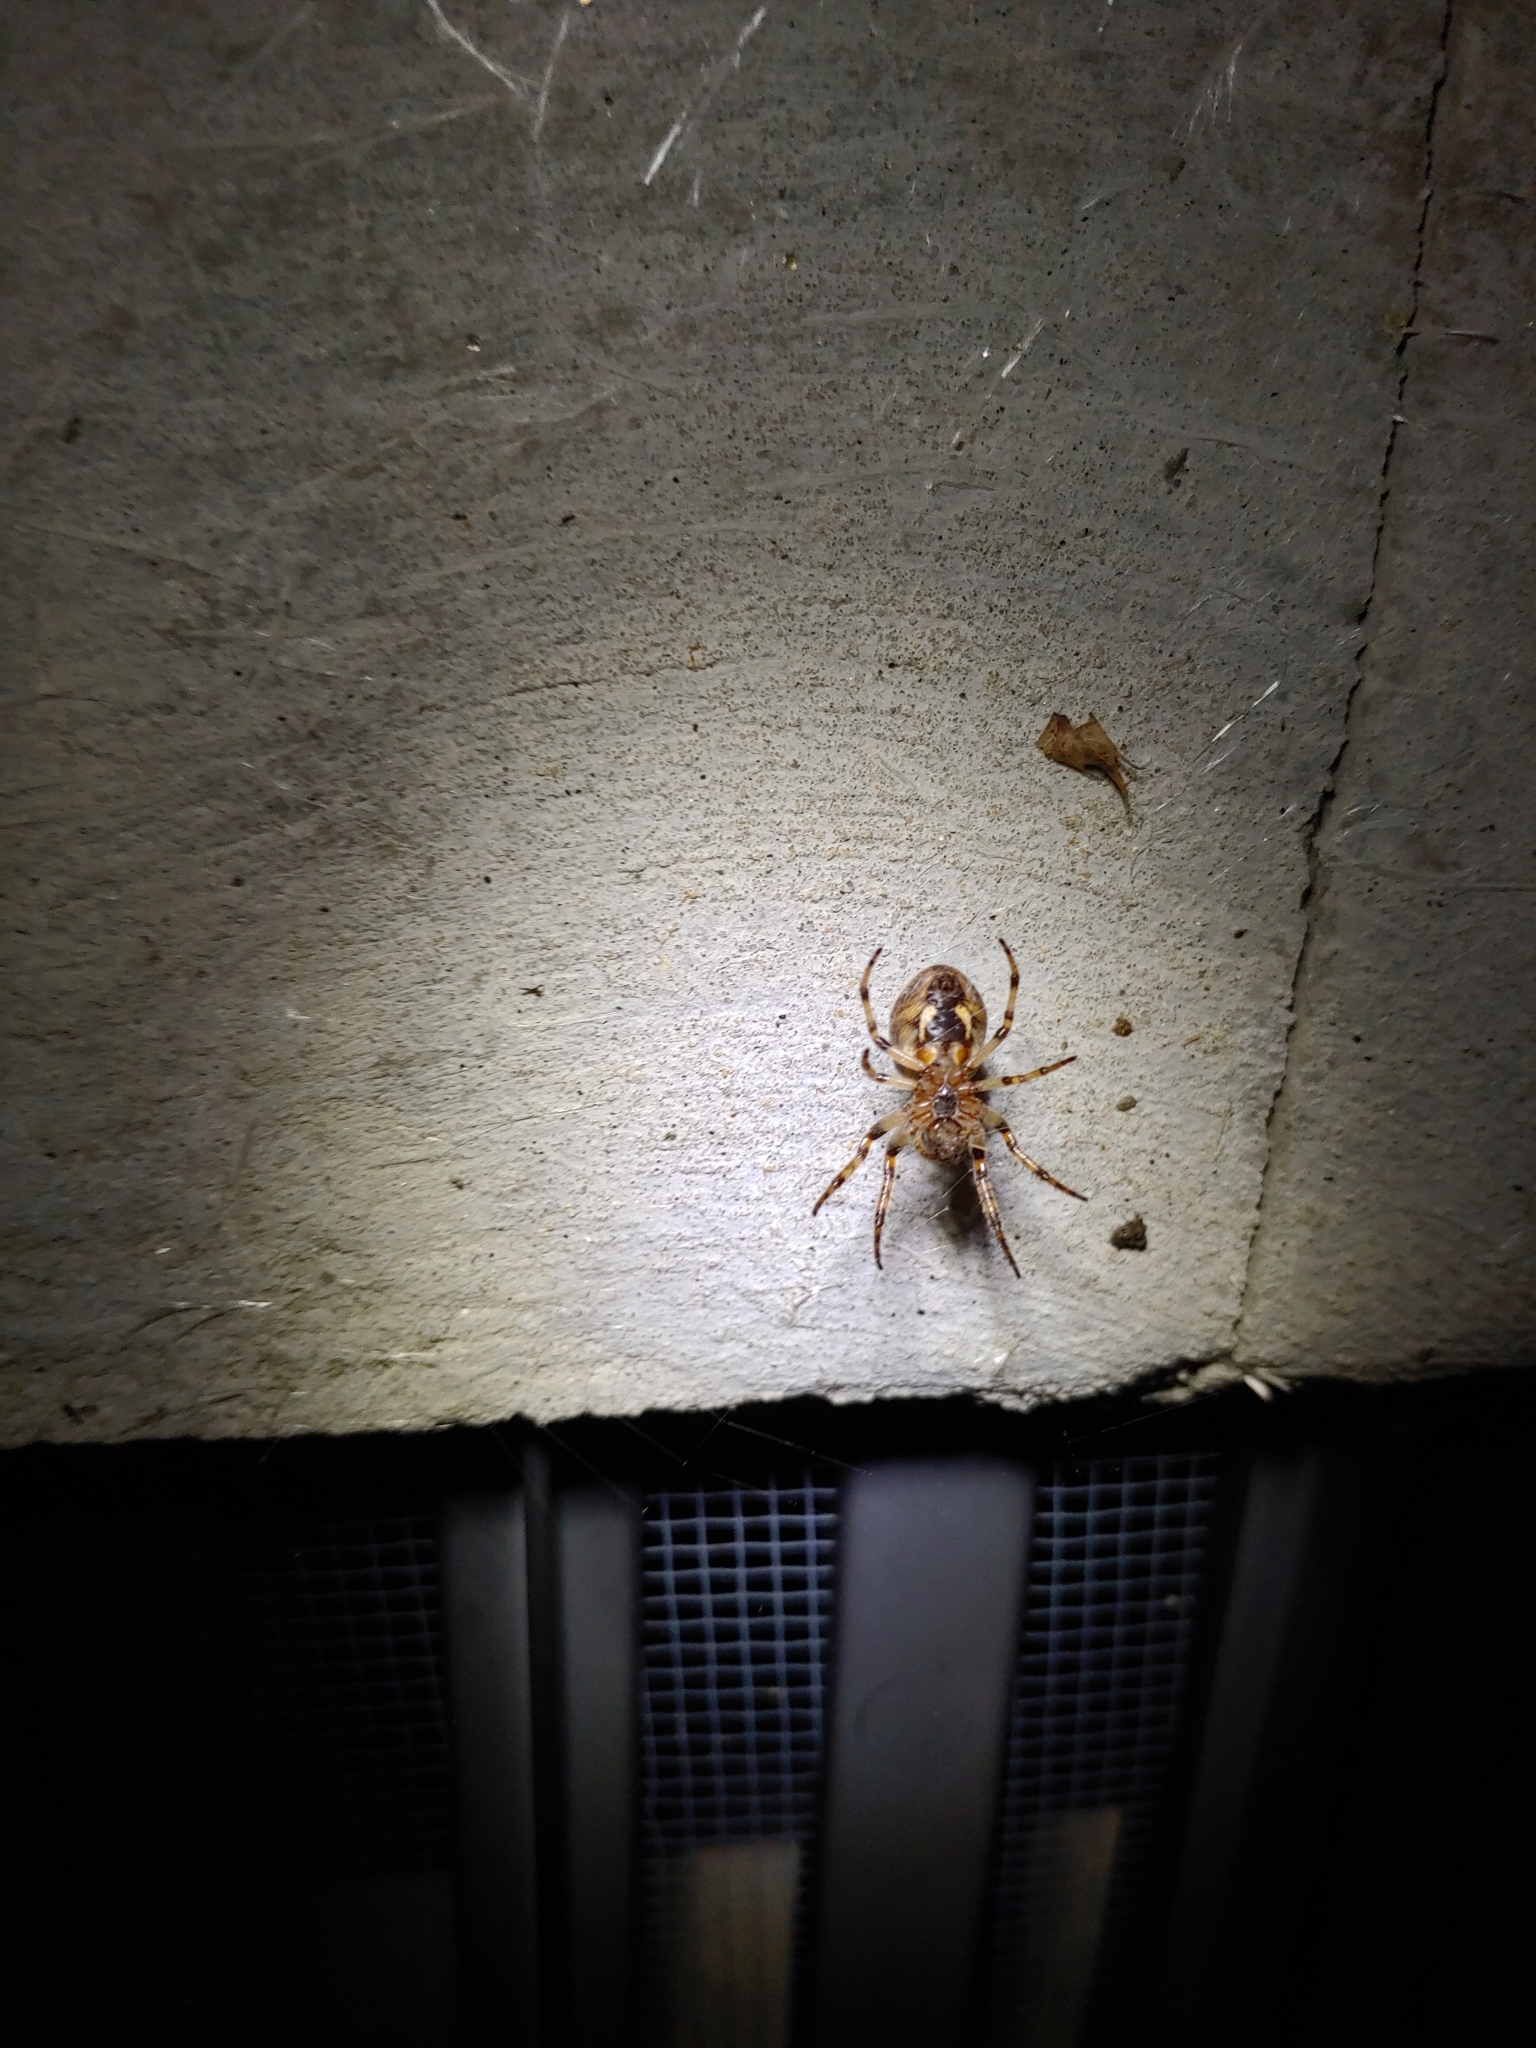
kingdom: Animalia
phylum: Arthropoda
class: Arachnida
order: Araneae
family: Araneidae
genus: Larinioides
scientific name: Larinioides cornutus
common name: Furrow orbweaver
